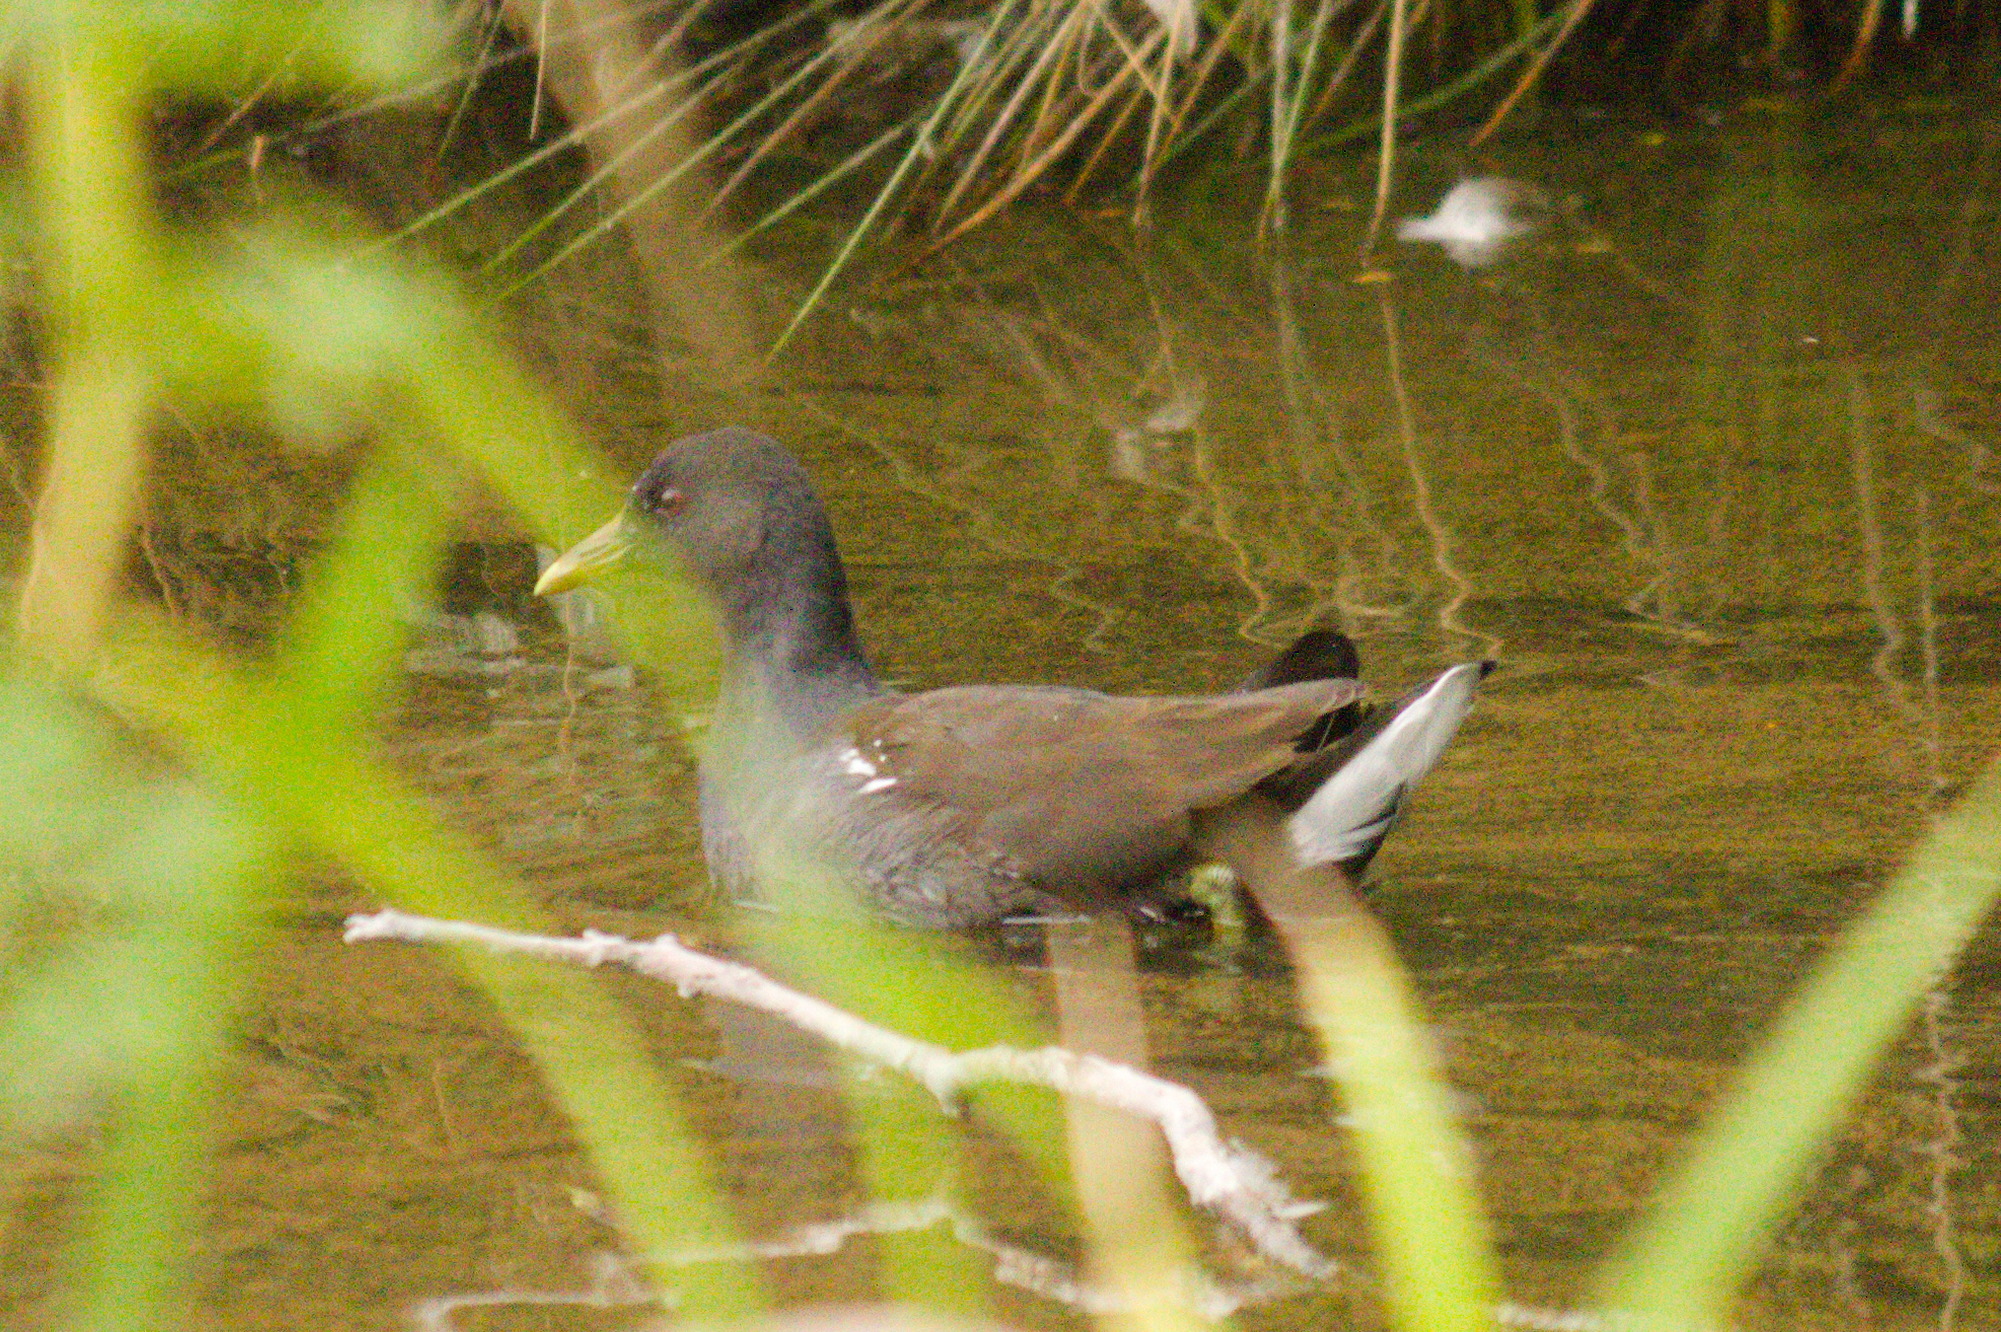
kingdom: Animalia
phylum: Chordata
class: Aves
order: Gruiformes
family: Rallidae
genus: Gallinula
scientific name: Gallinula chloropus
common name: Common moorhen
